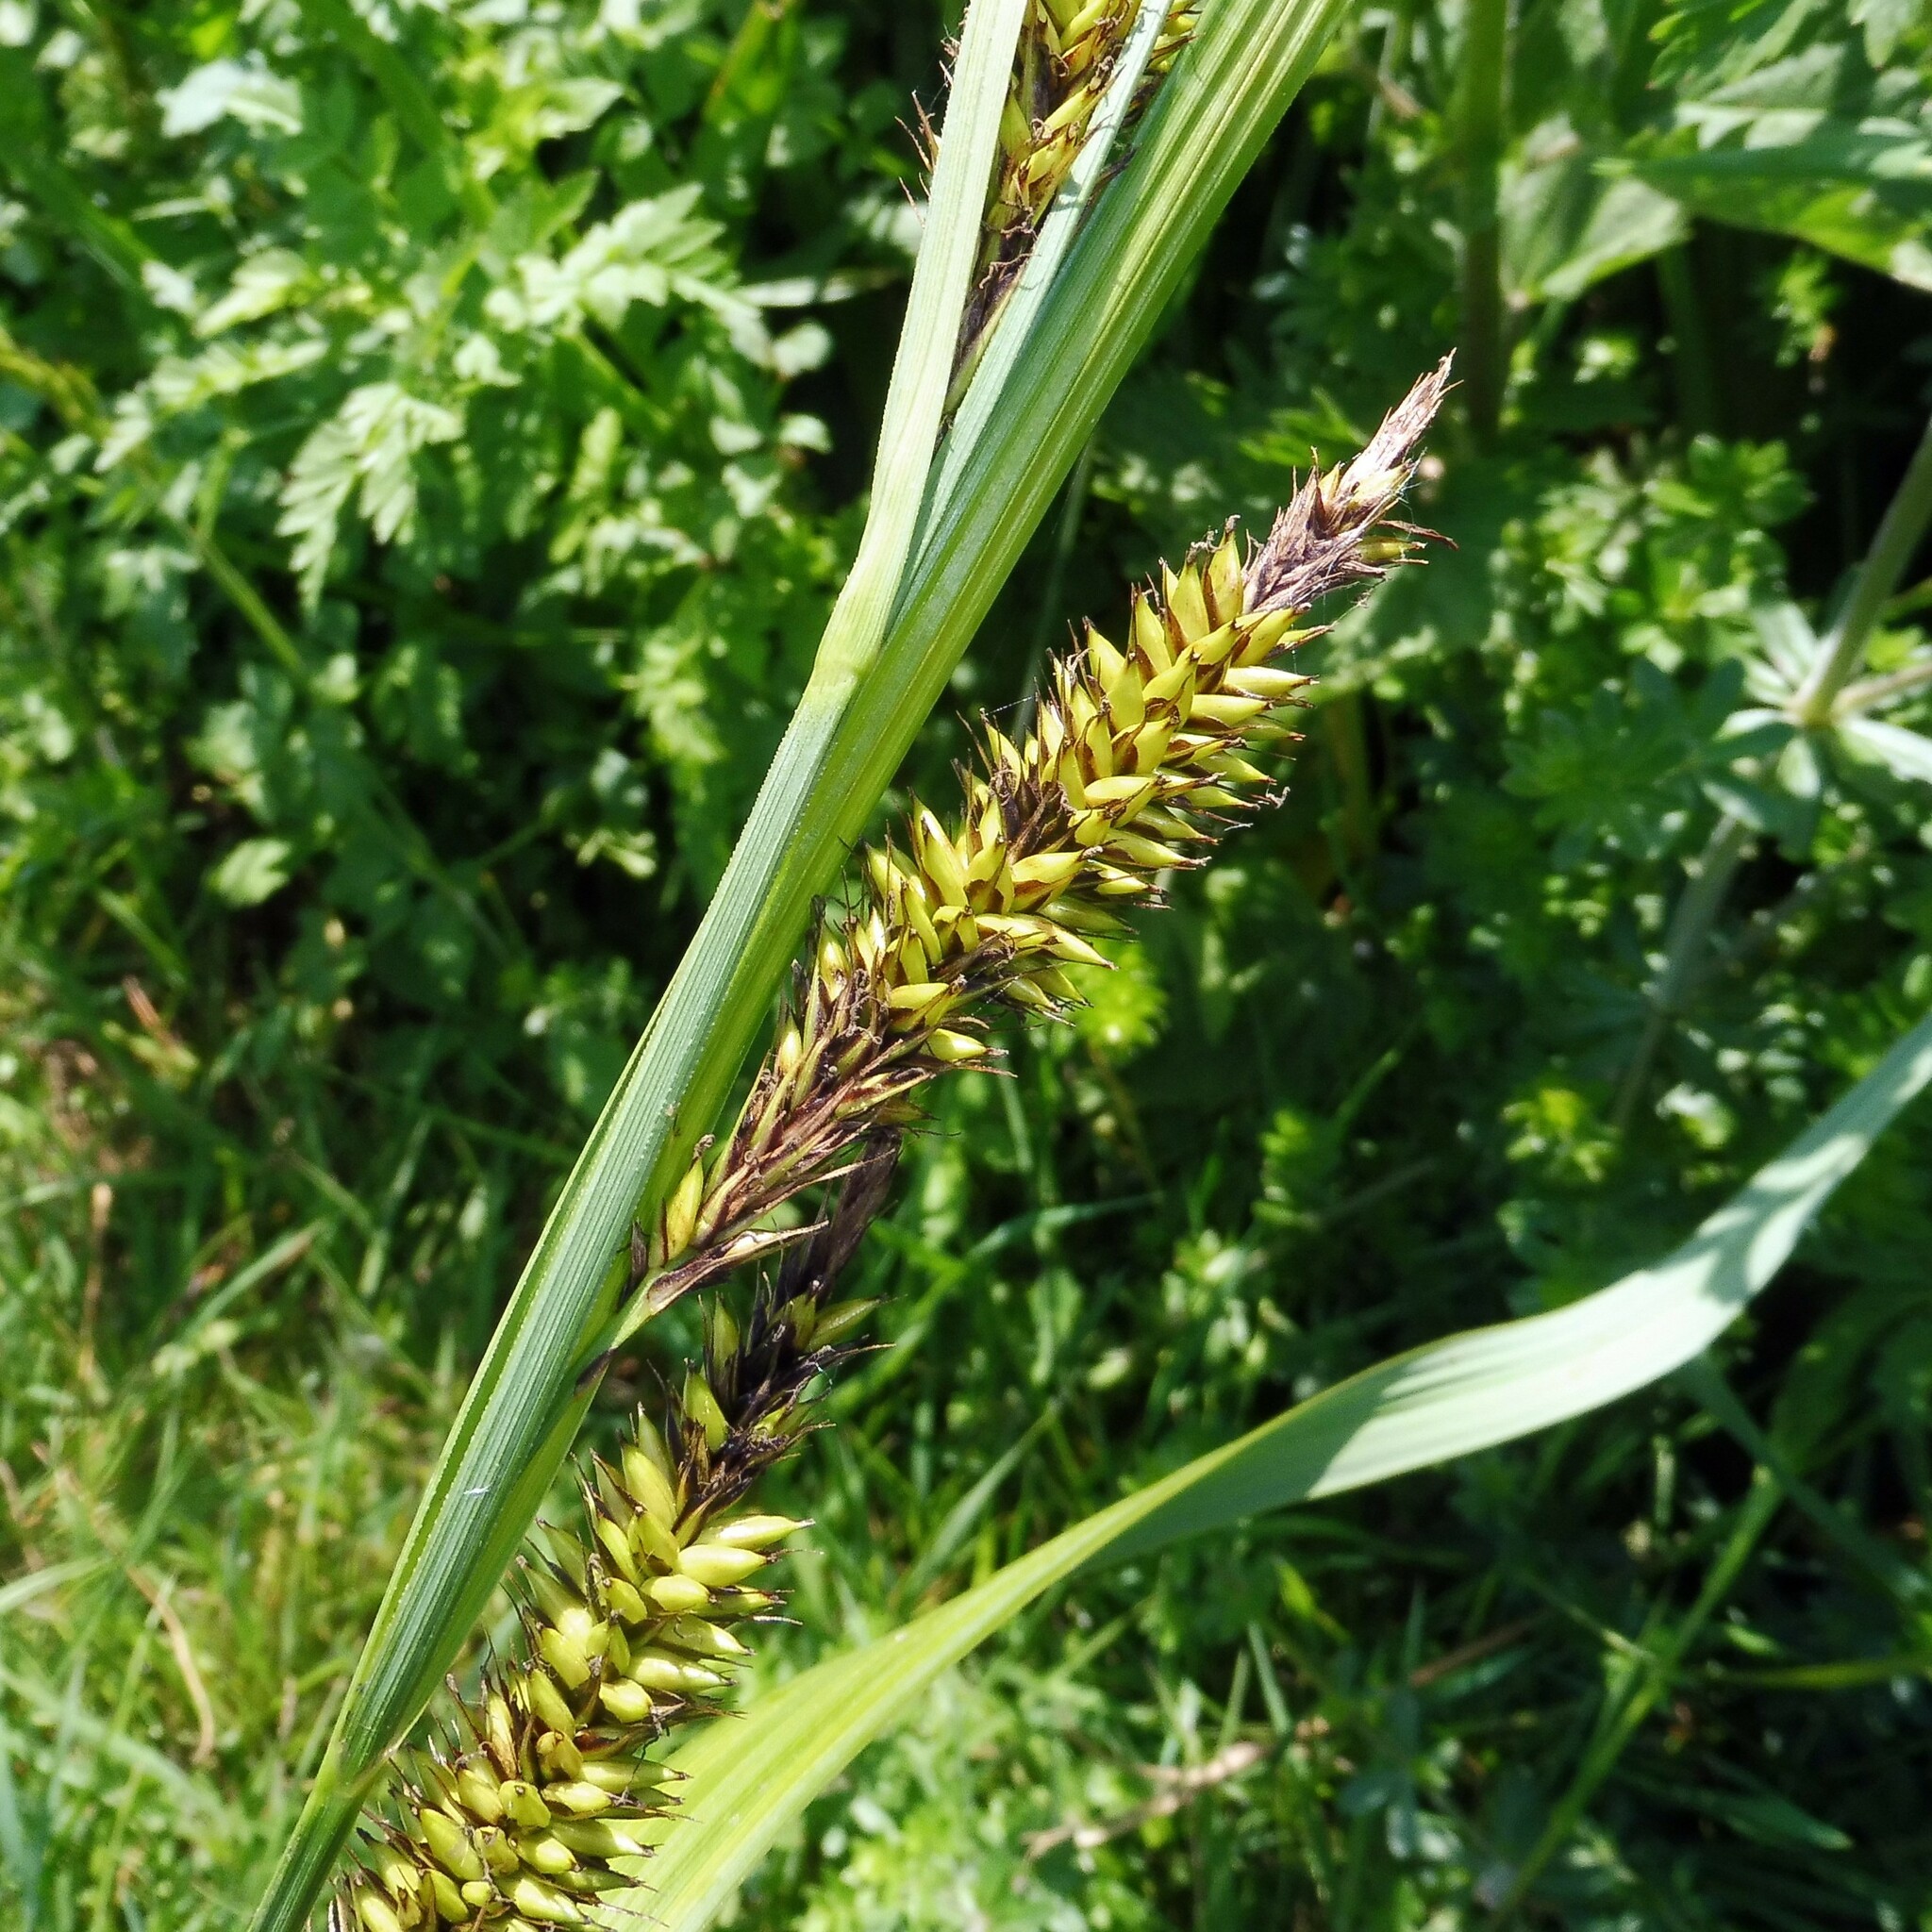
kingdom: Plantae
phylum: Tracheophyta
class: Liliopsida
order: Poales
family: Cyperaceae
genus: Carex
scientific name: Carex riparia
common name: Greater pond-sedge
